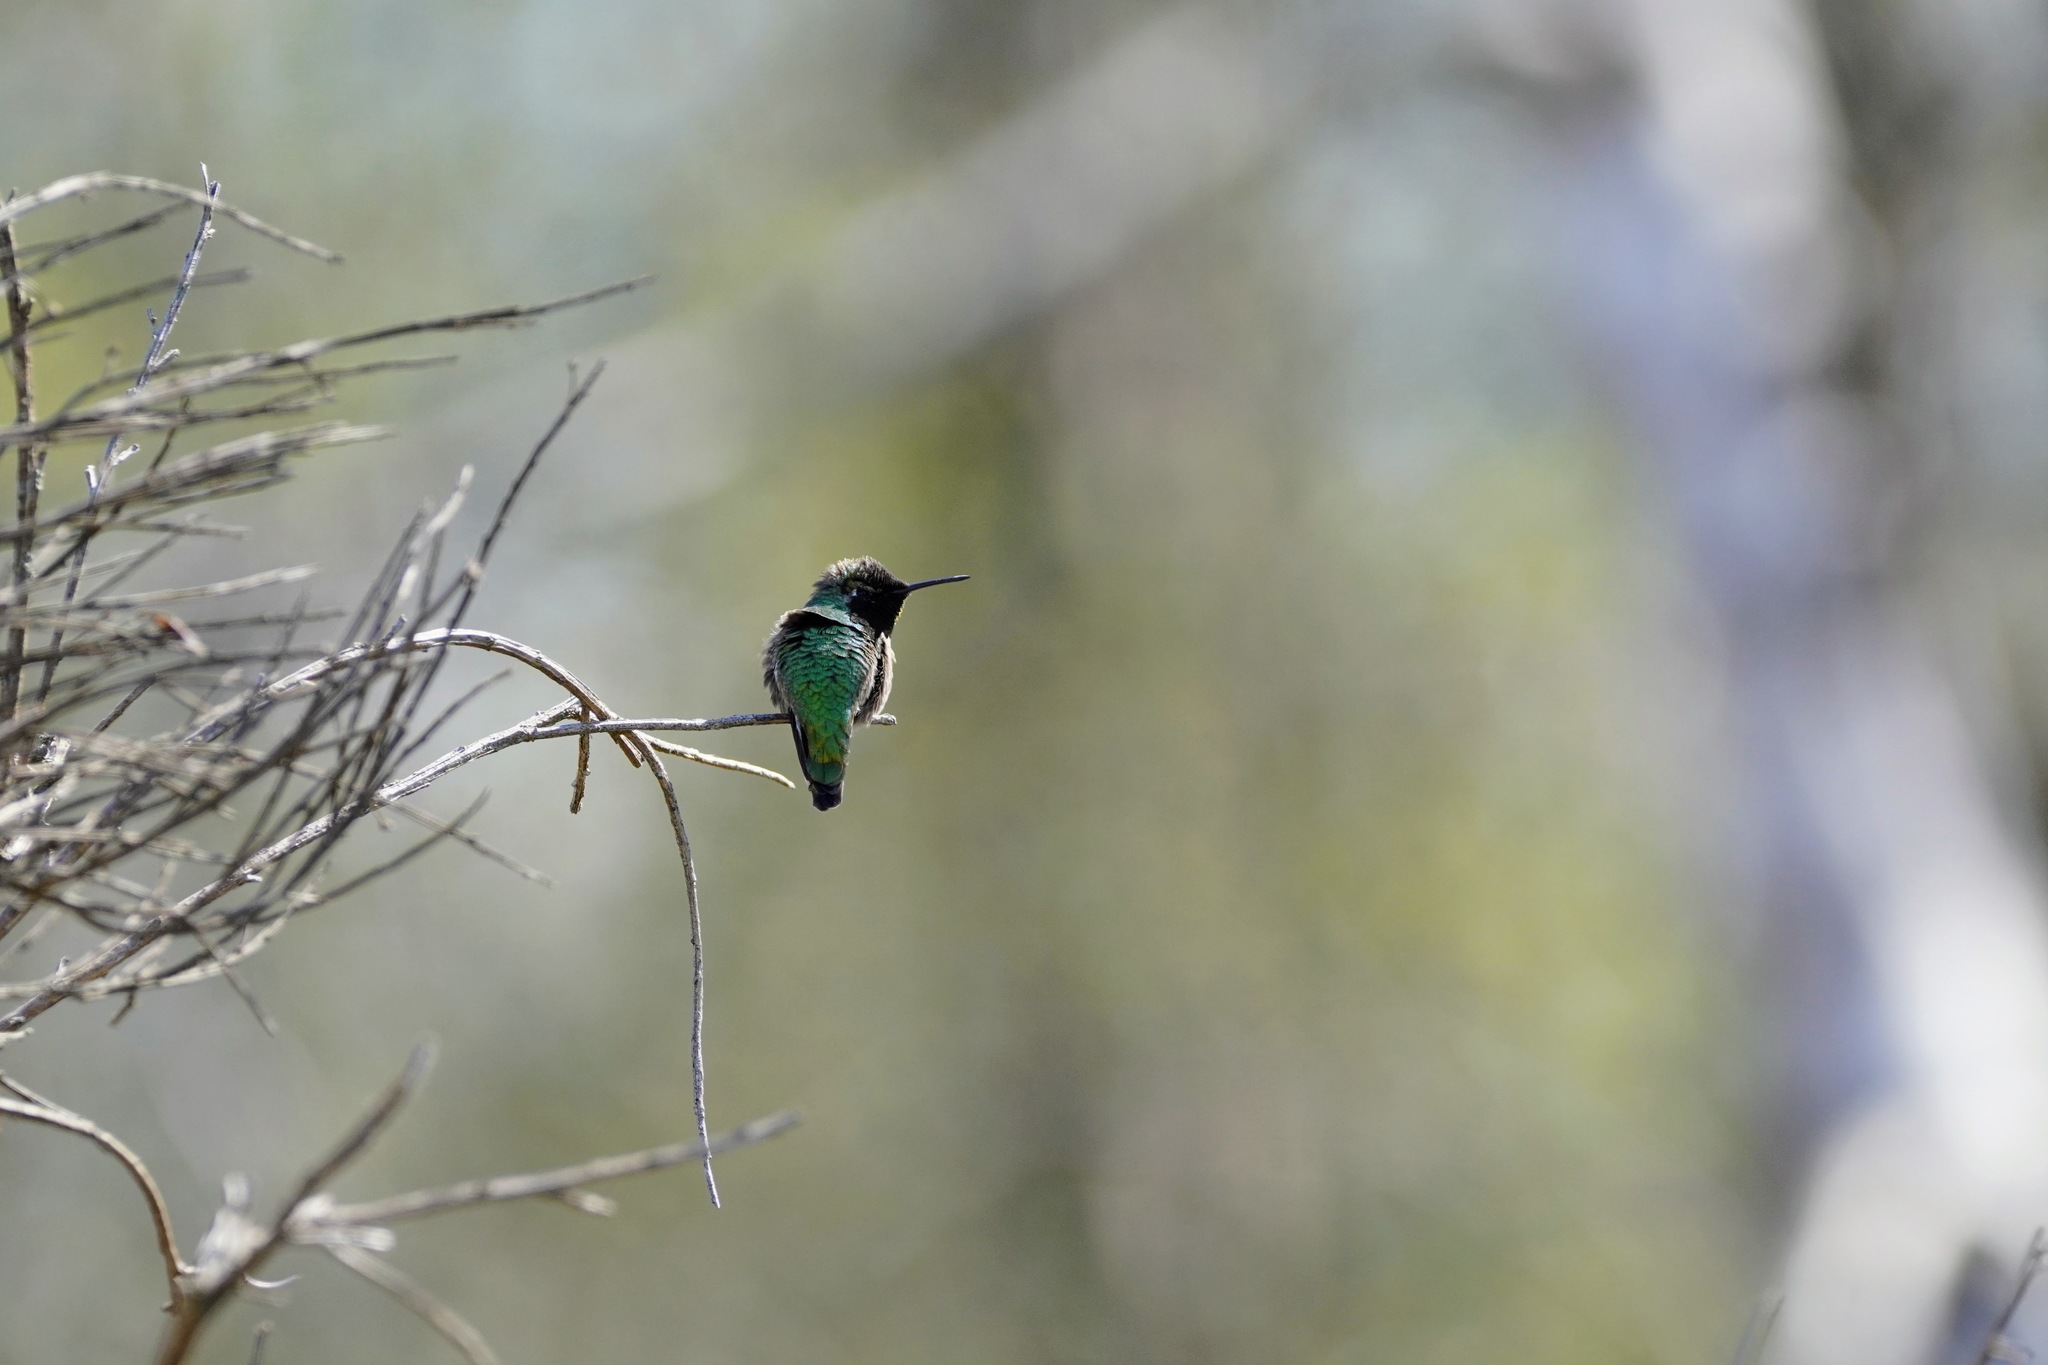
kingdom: Animalia
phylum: Chordata
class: Aves
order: Apodiformes
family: Trochilidae
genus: Calypte
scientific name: Calypte anna
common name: Anna's hummingbird
